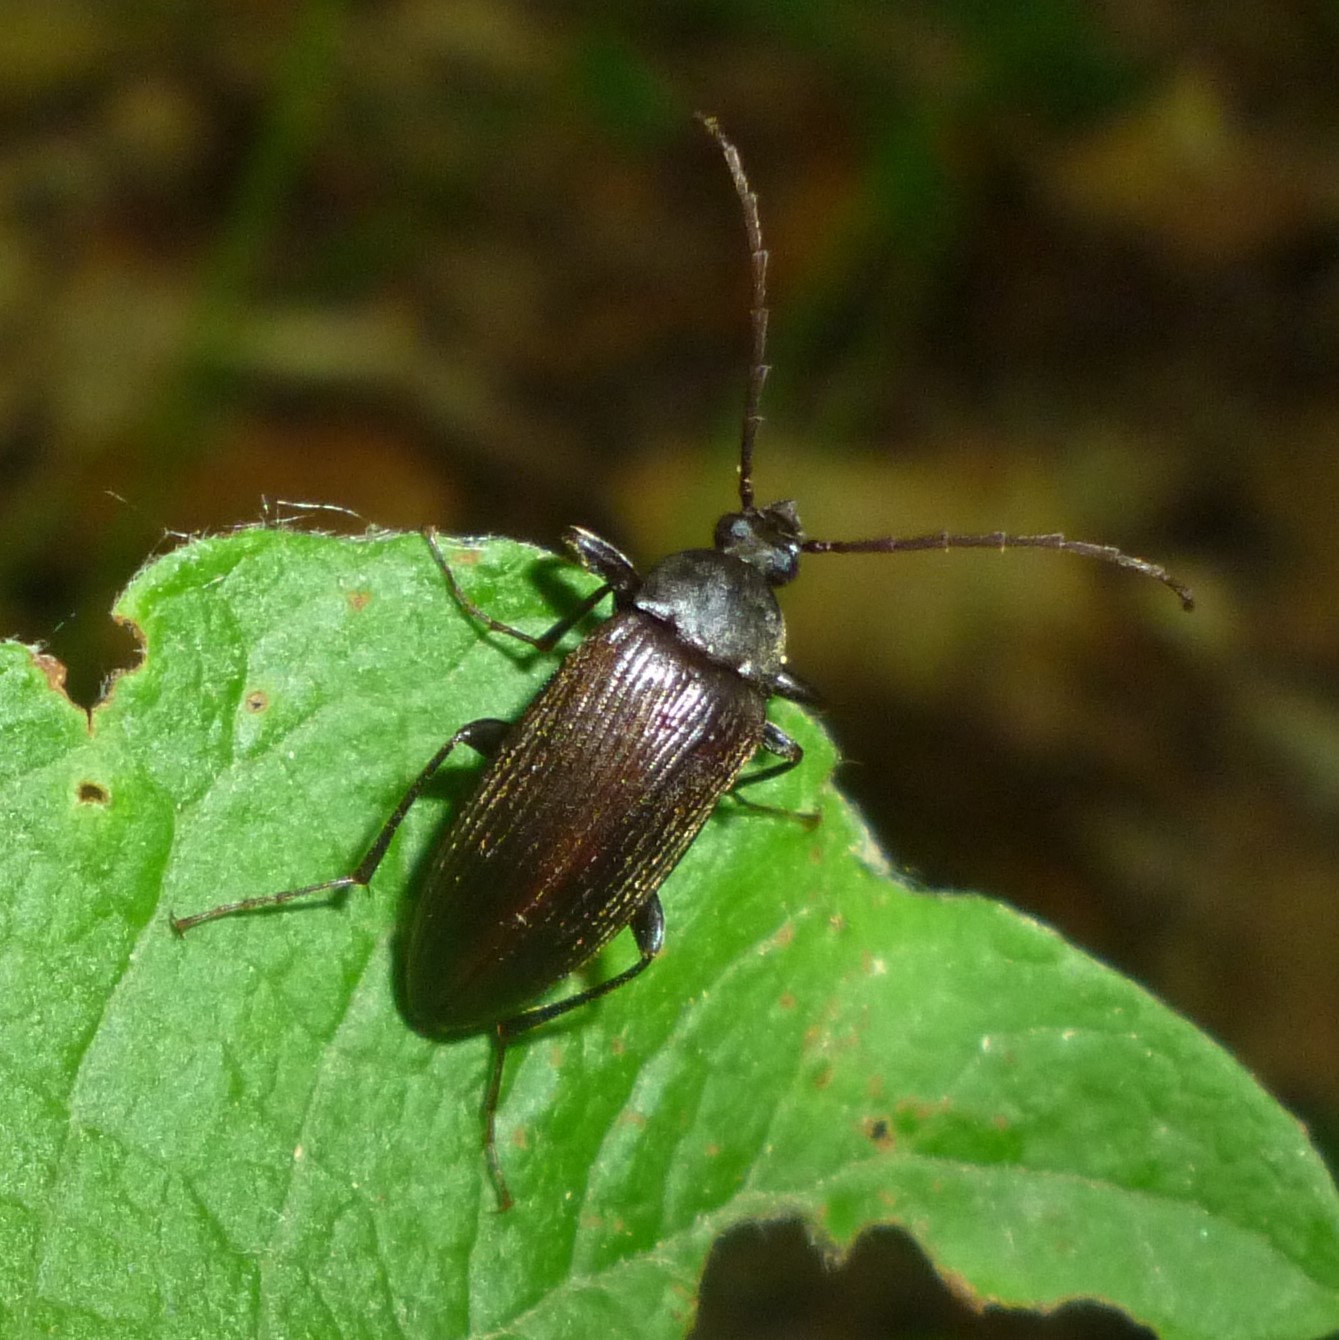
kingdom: Animalia
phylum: Arthropoda
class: Insecta
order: Coleoptera
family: Tenebrionidae
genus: Capnochroa
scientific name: Capnochroa fuliginosa
